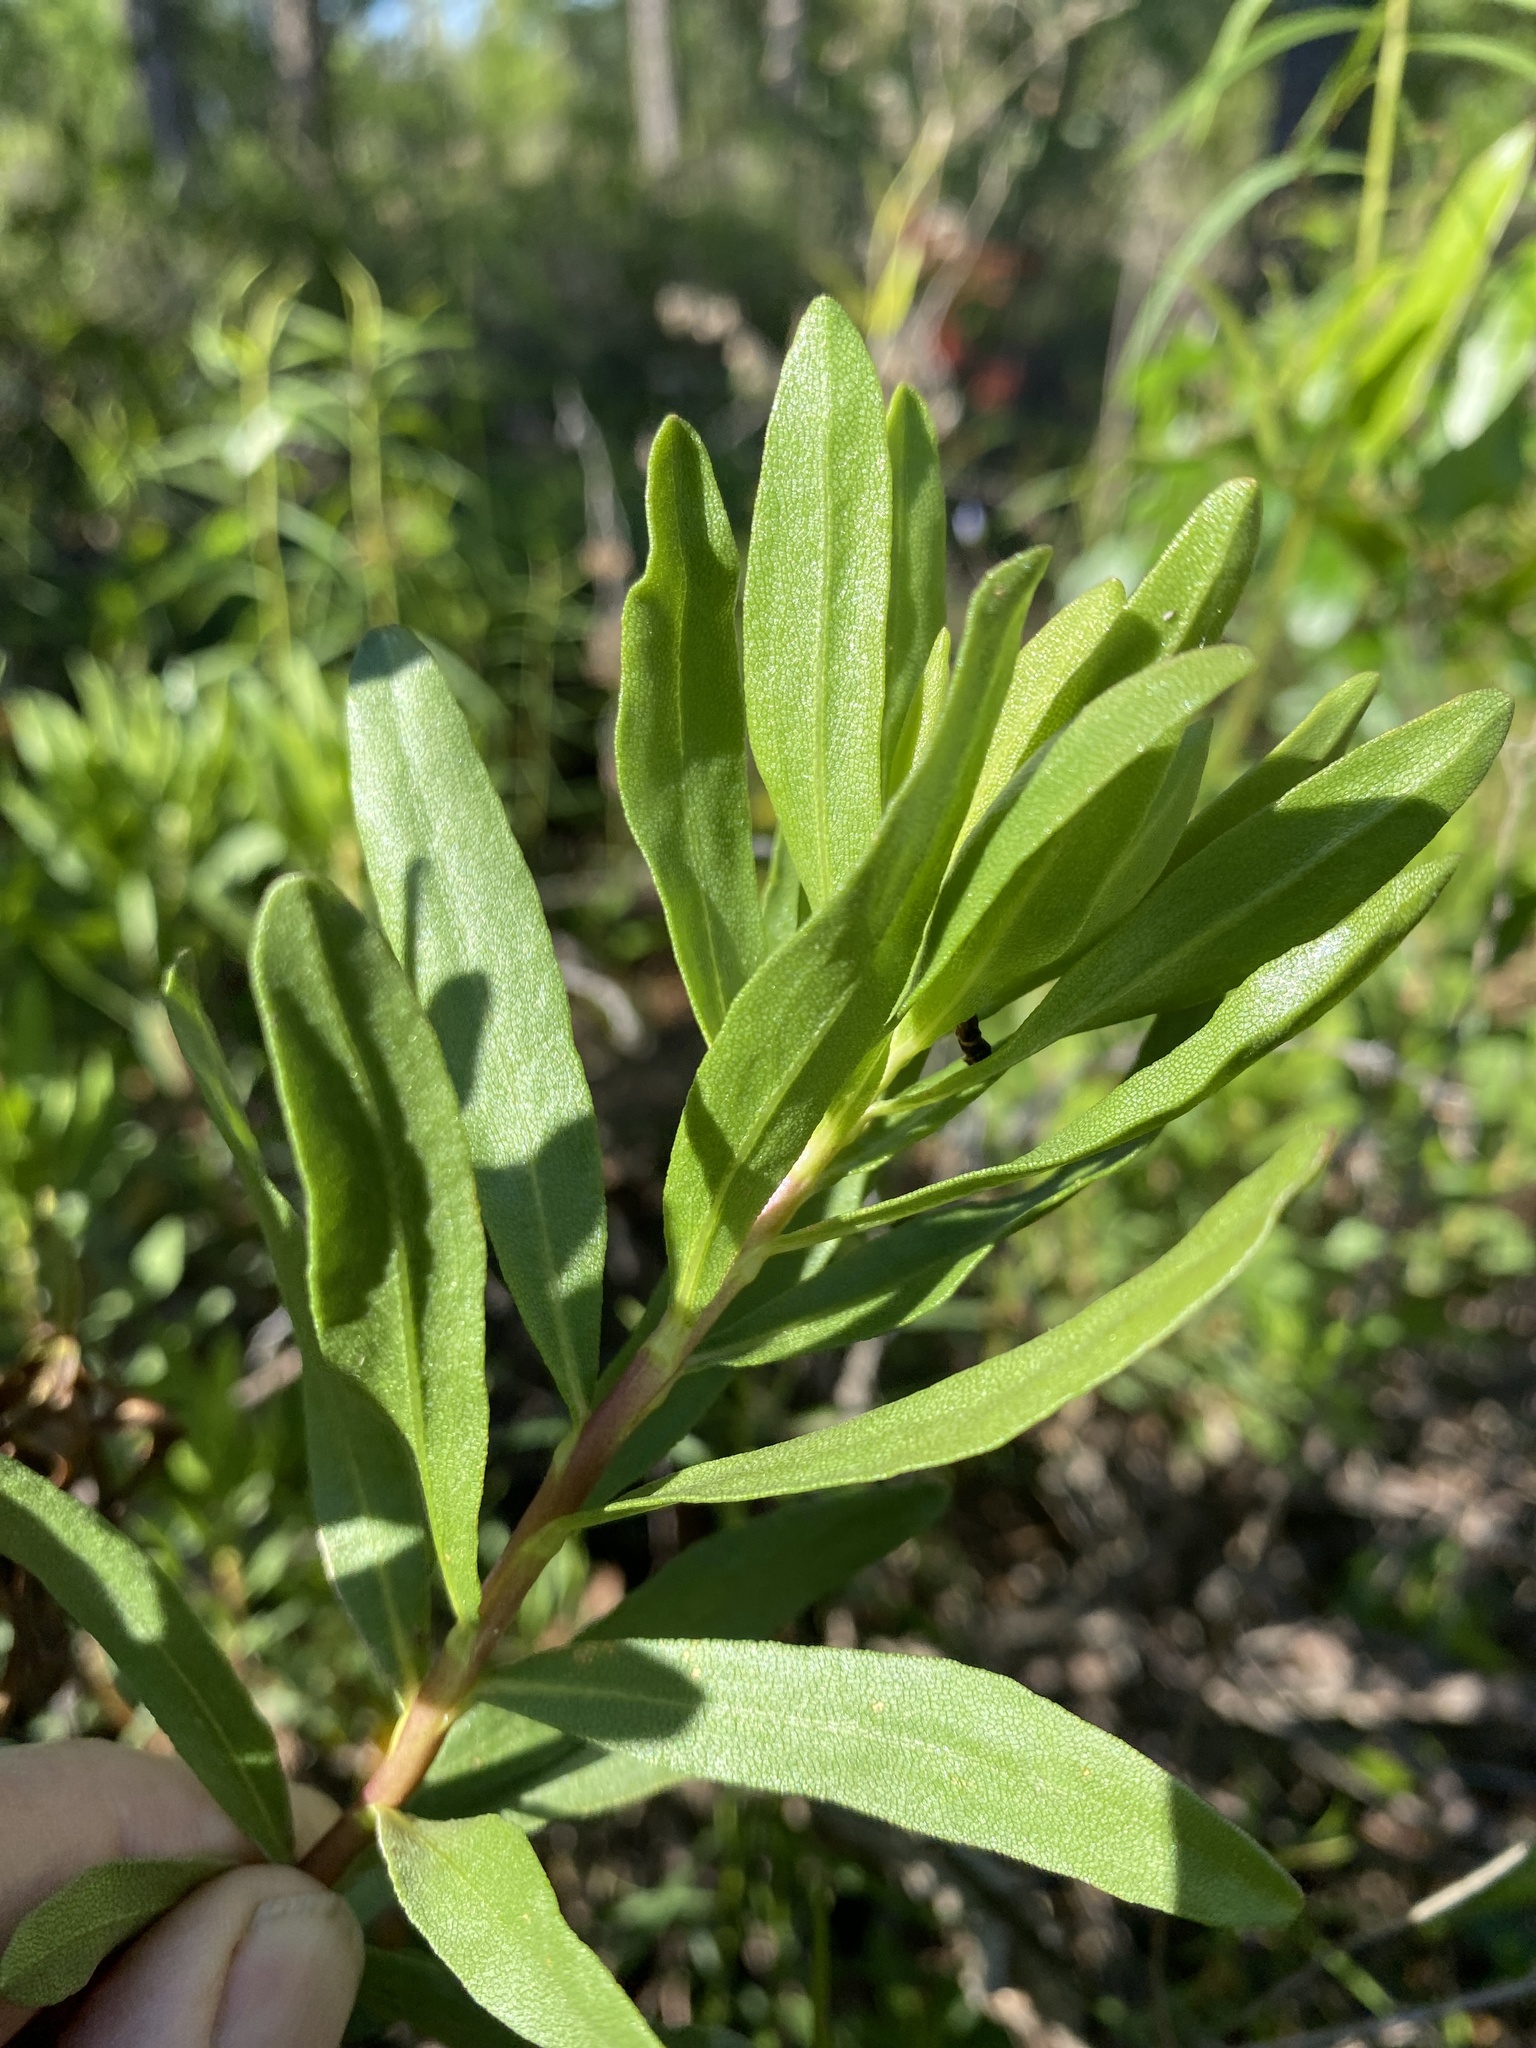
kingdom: Plantae
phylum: Tracheophyta
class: Magnoliopsida
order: Asterales
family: Asteraceae
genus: Chrysoma
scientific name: Chrysoma pauciflosculosa
